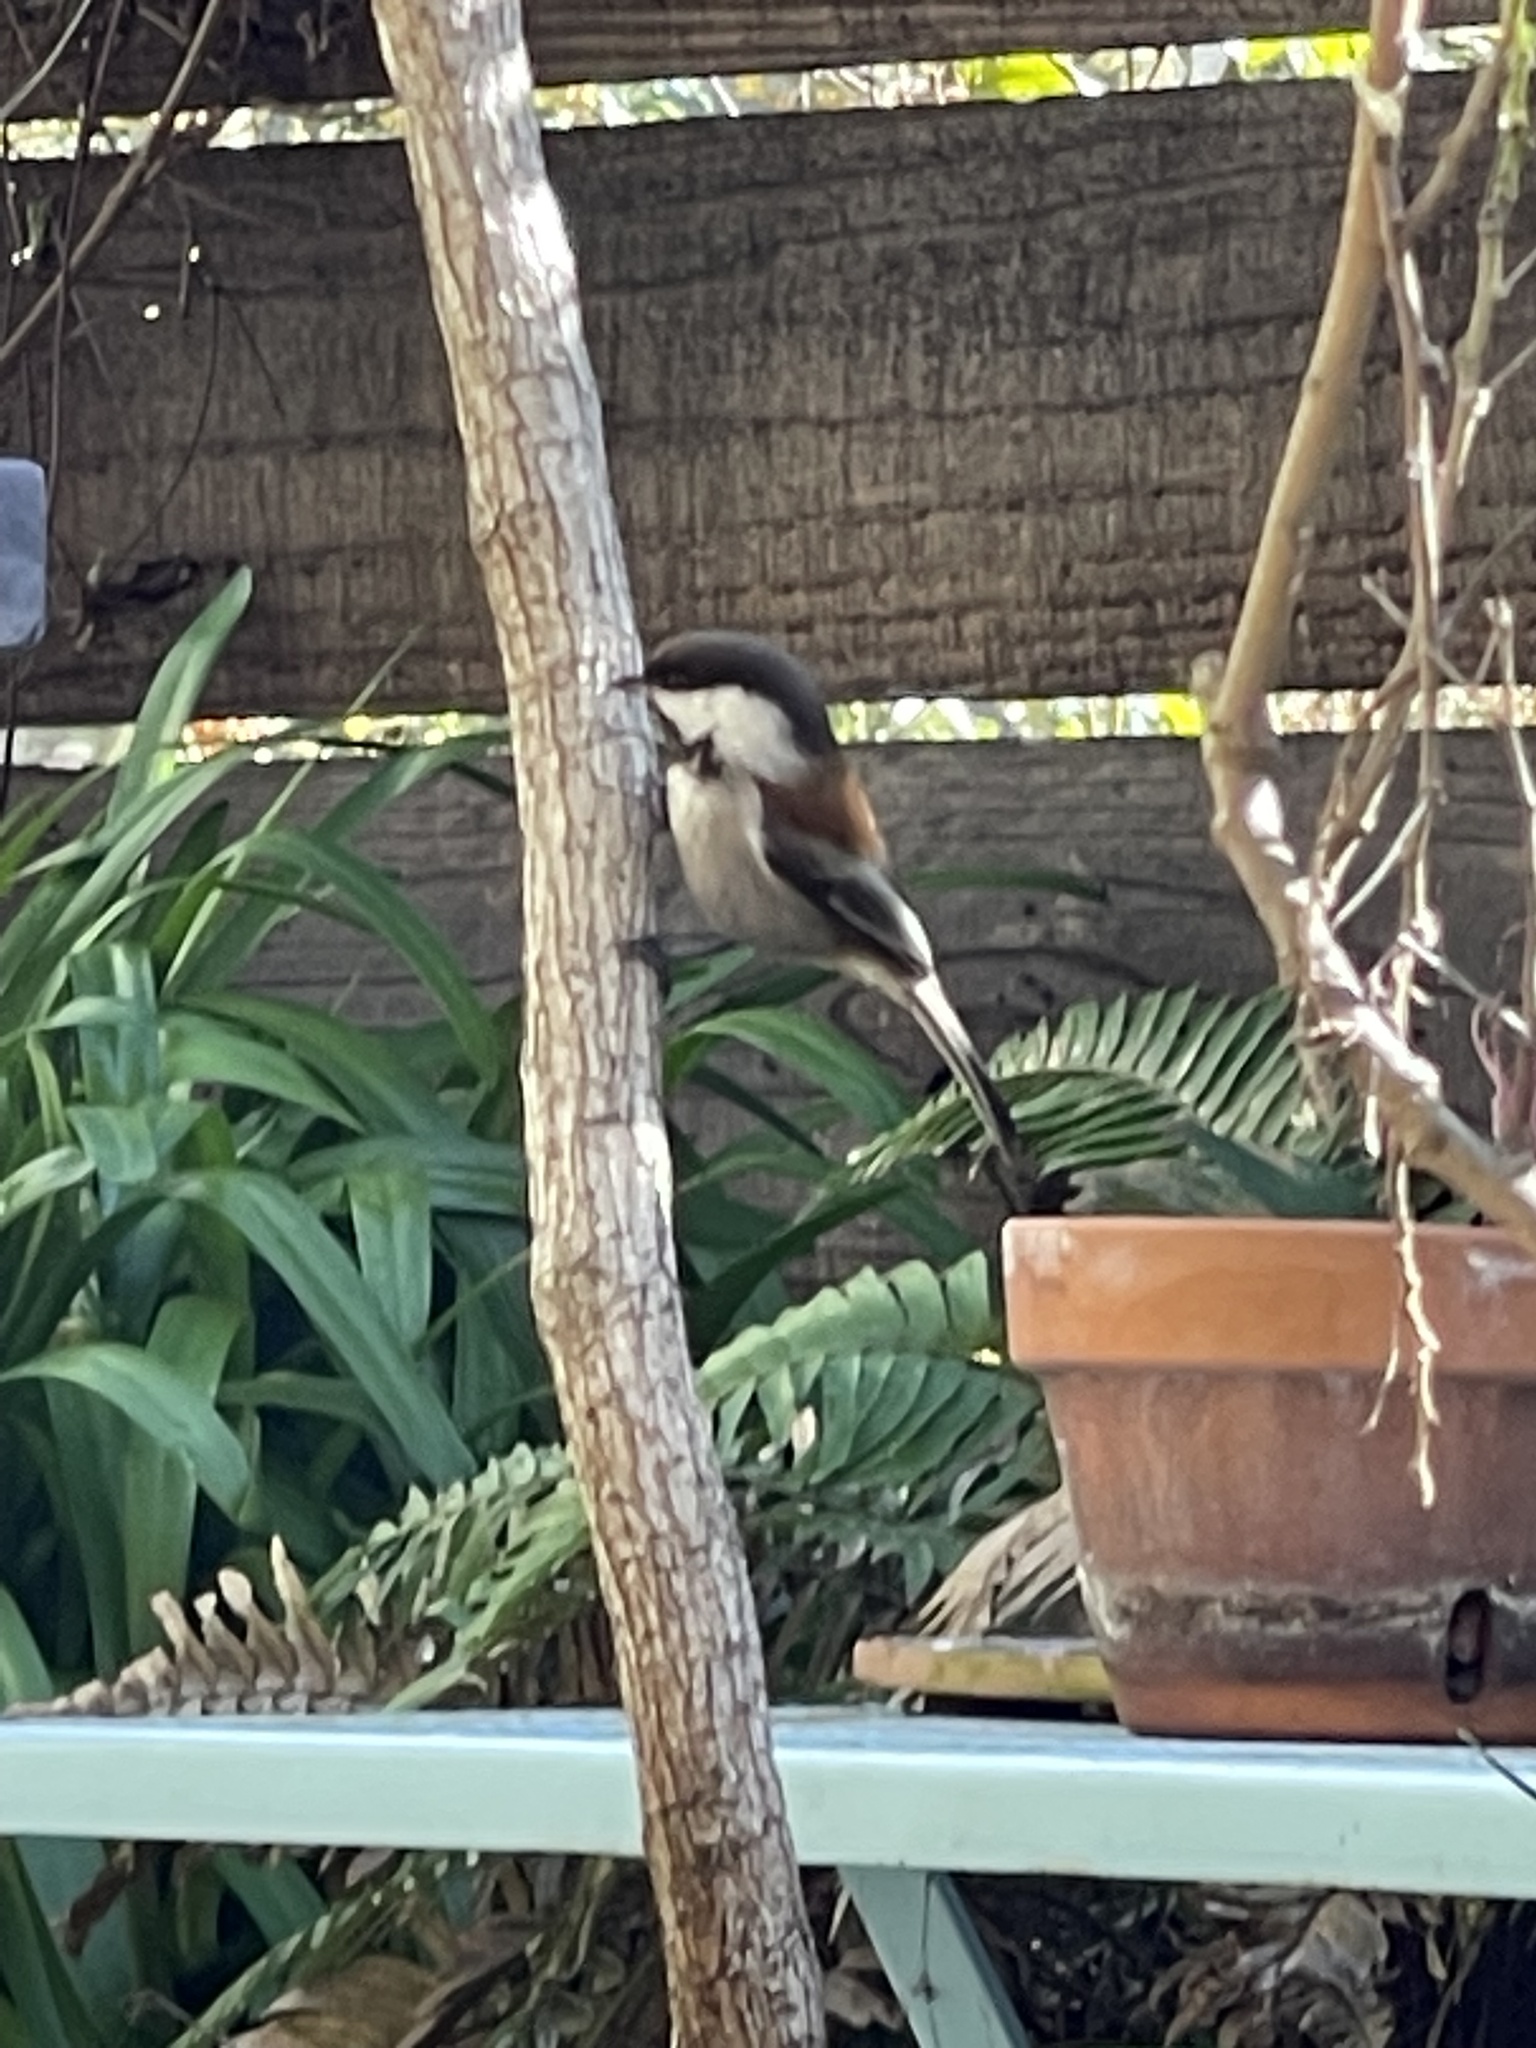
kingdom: Animalia
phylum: Chordata
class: Aves
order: Passeriformes
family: Paridae
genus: Poecile
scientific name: Poecile rufescens
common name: Chestnut-backed chickadee
